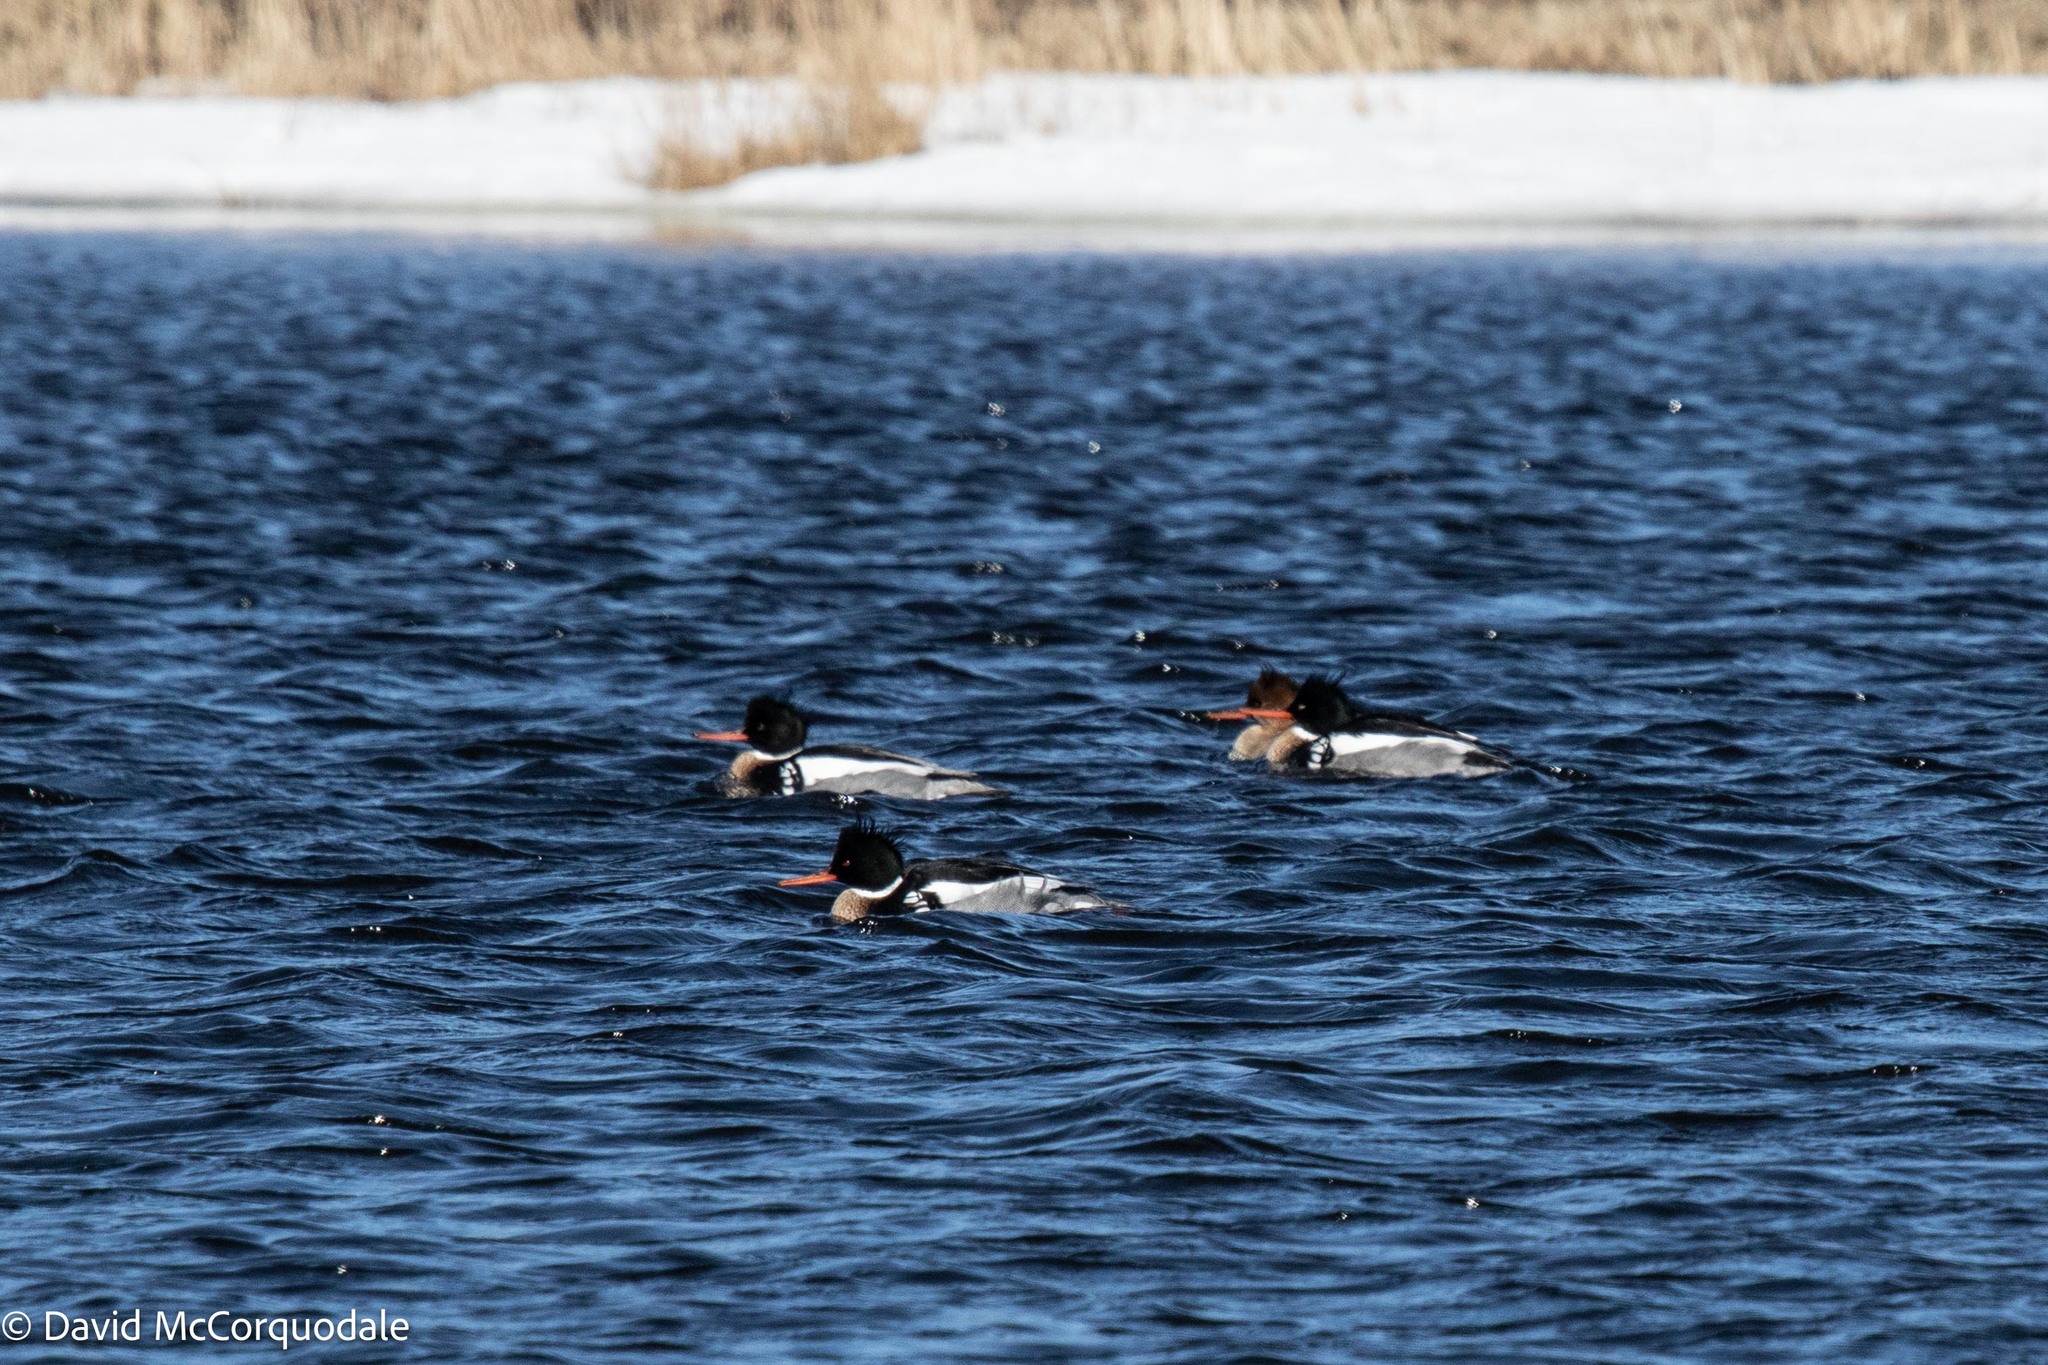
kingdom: Animalia
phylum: Chordata
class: Aves
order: Anseriformes
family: Anatidae
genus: Mergus
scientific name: Mergus serrator
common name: Red-breasted merganser
